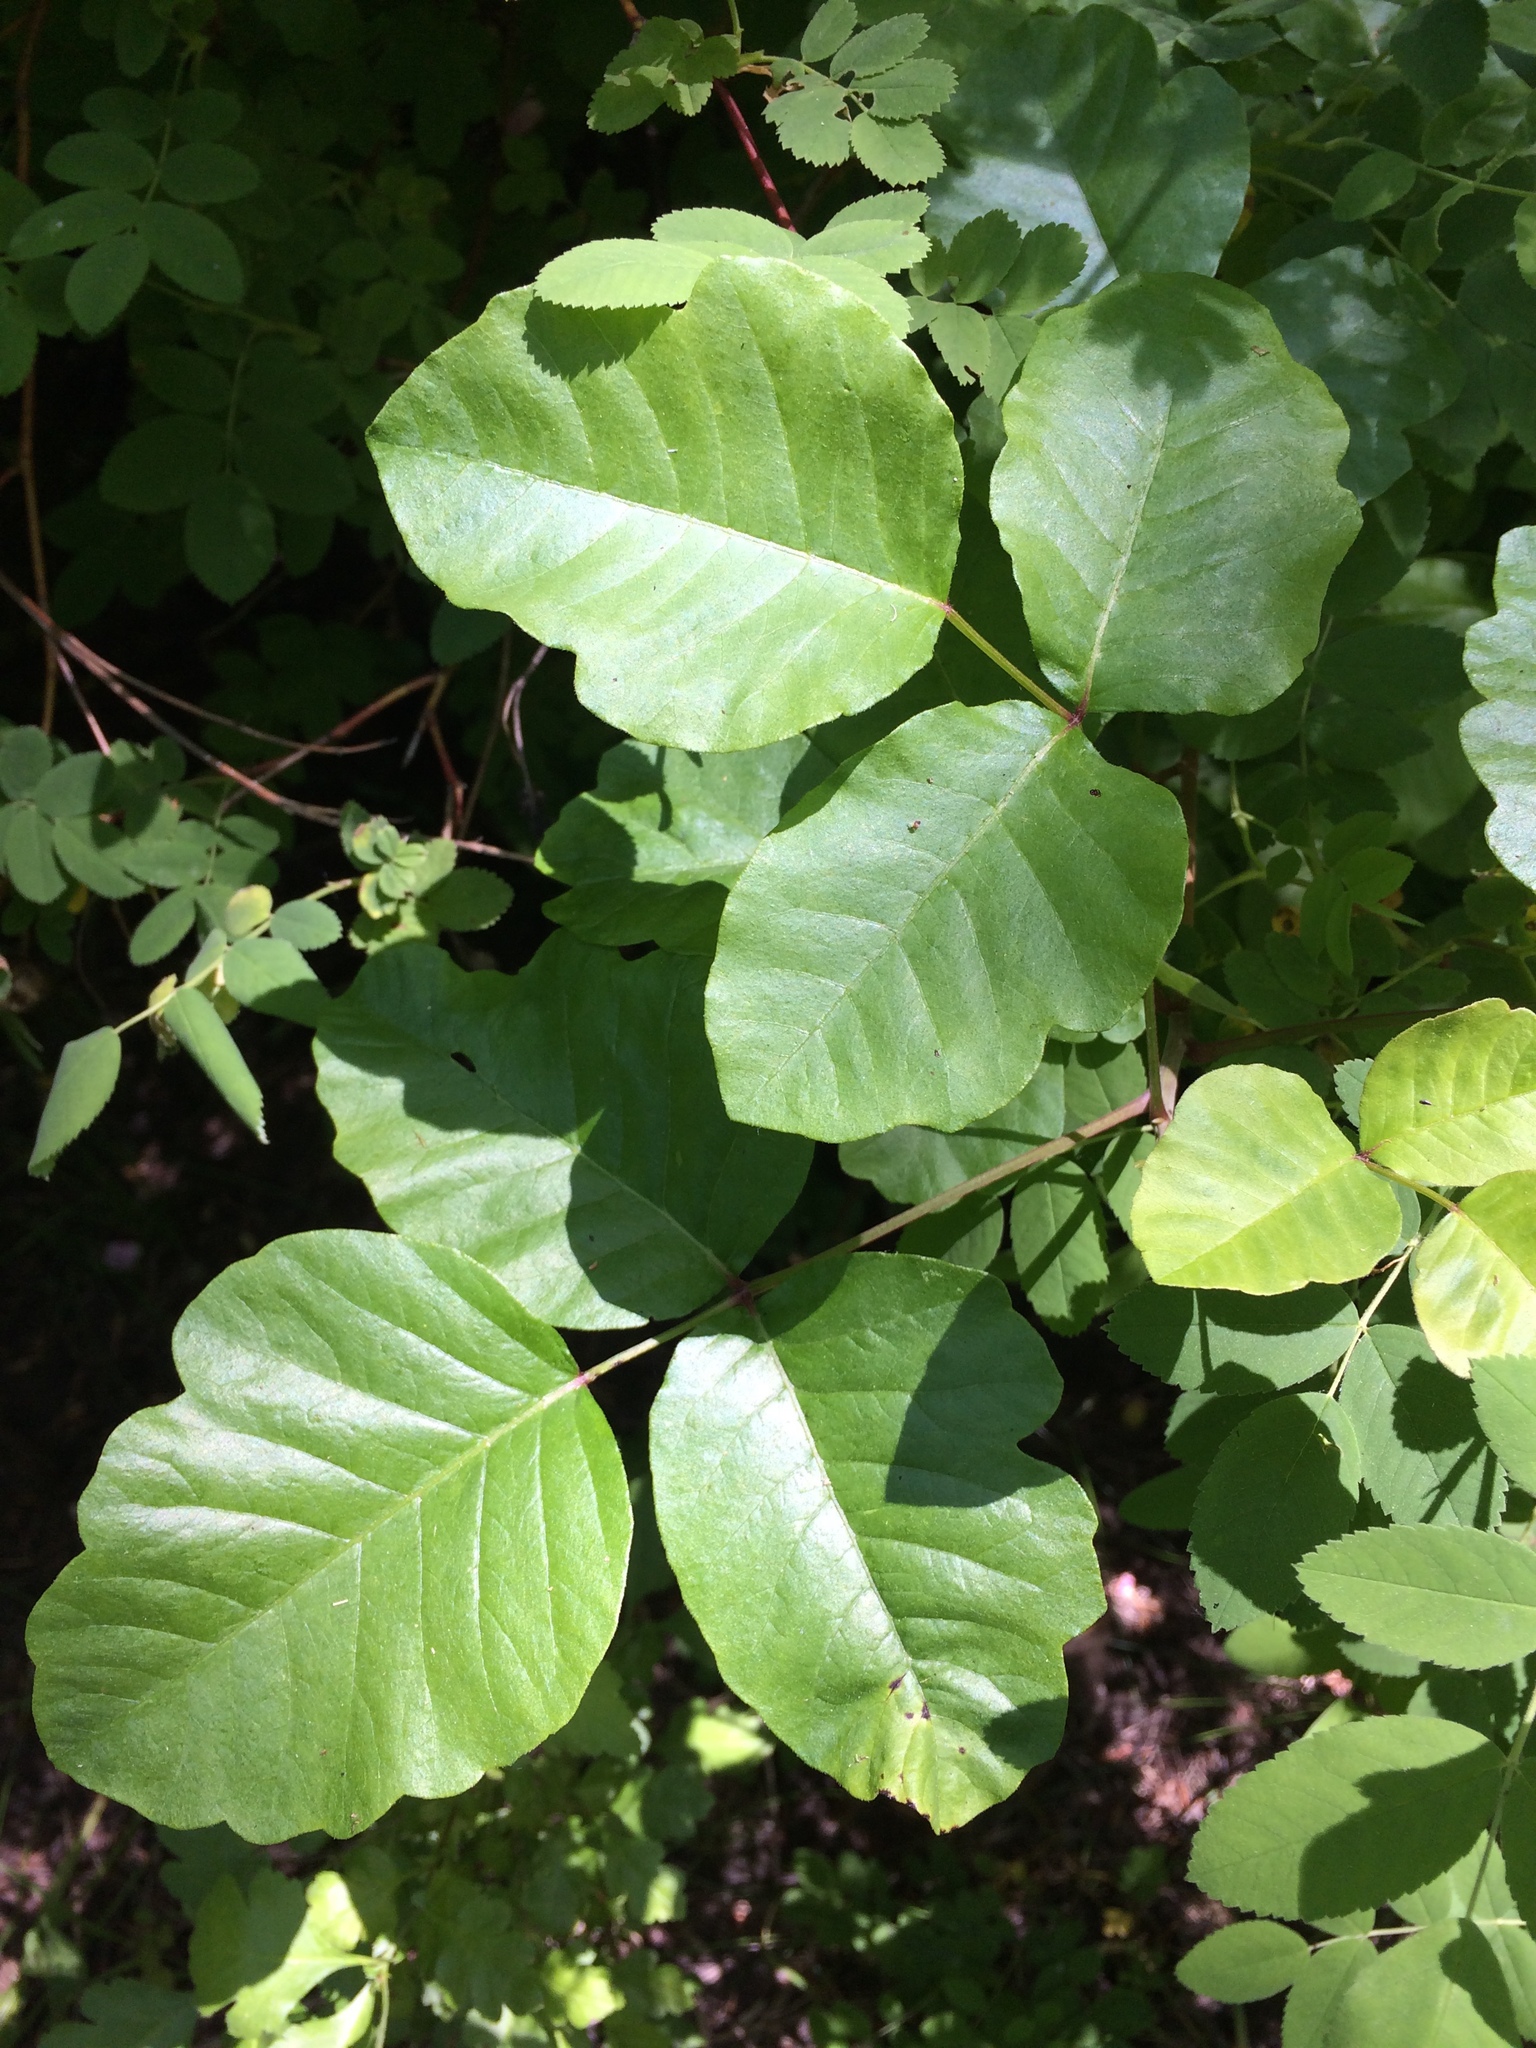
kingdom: Plantae
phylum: Tracheophyta
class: Magnoliopsida
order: Sapindales
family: Anacardiaceae
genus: Toxicodendron
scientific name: Toxicodendron diversilobum
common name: Pacific poison-oak
